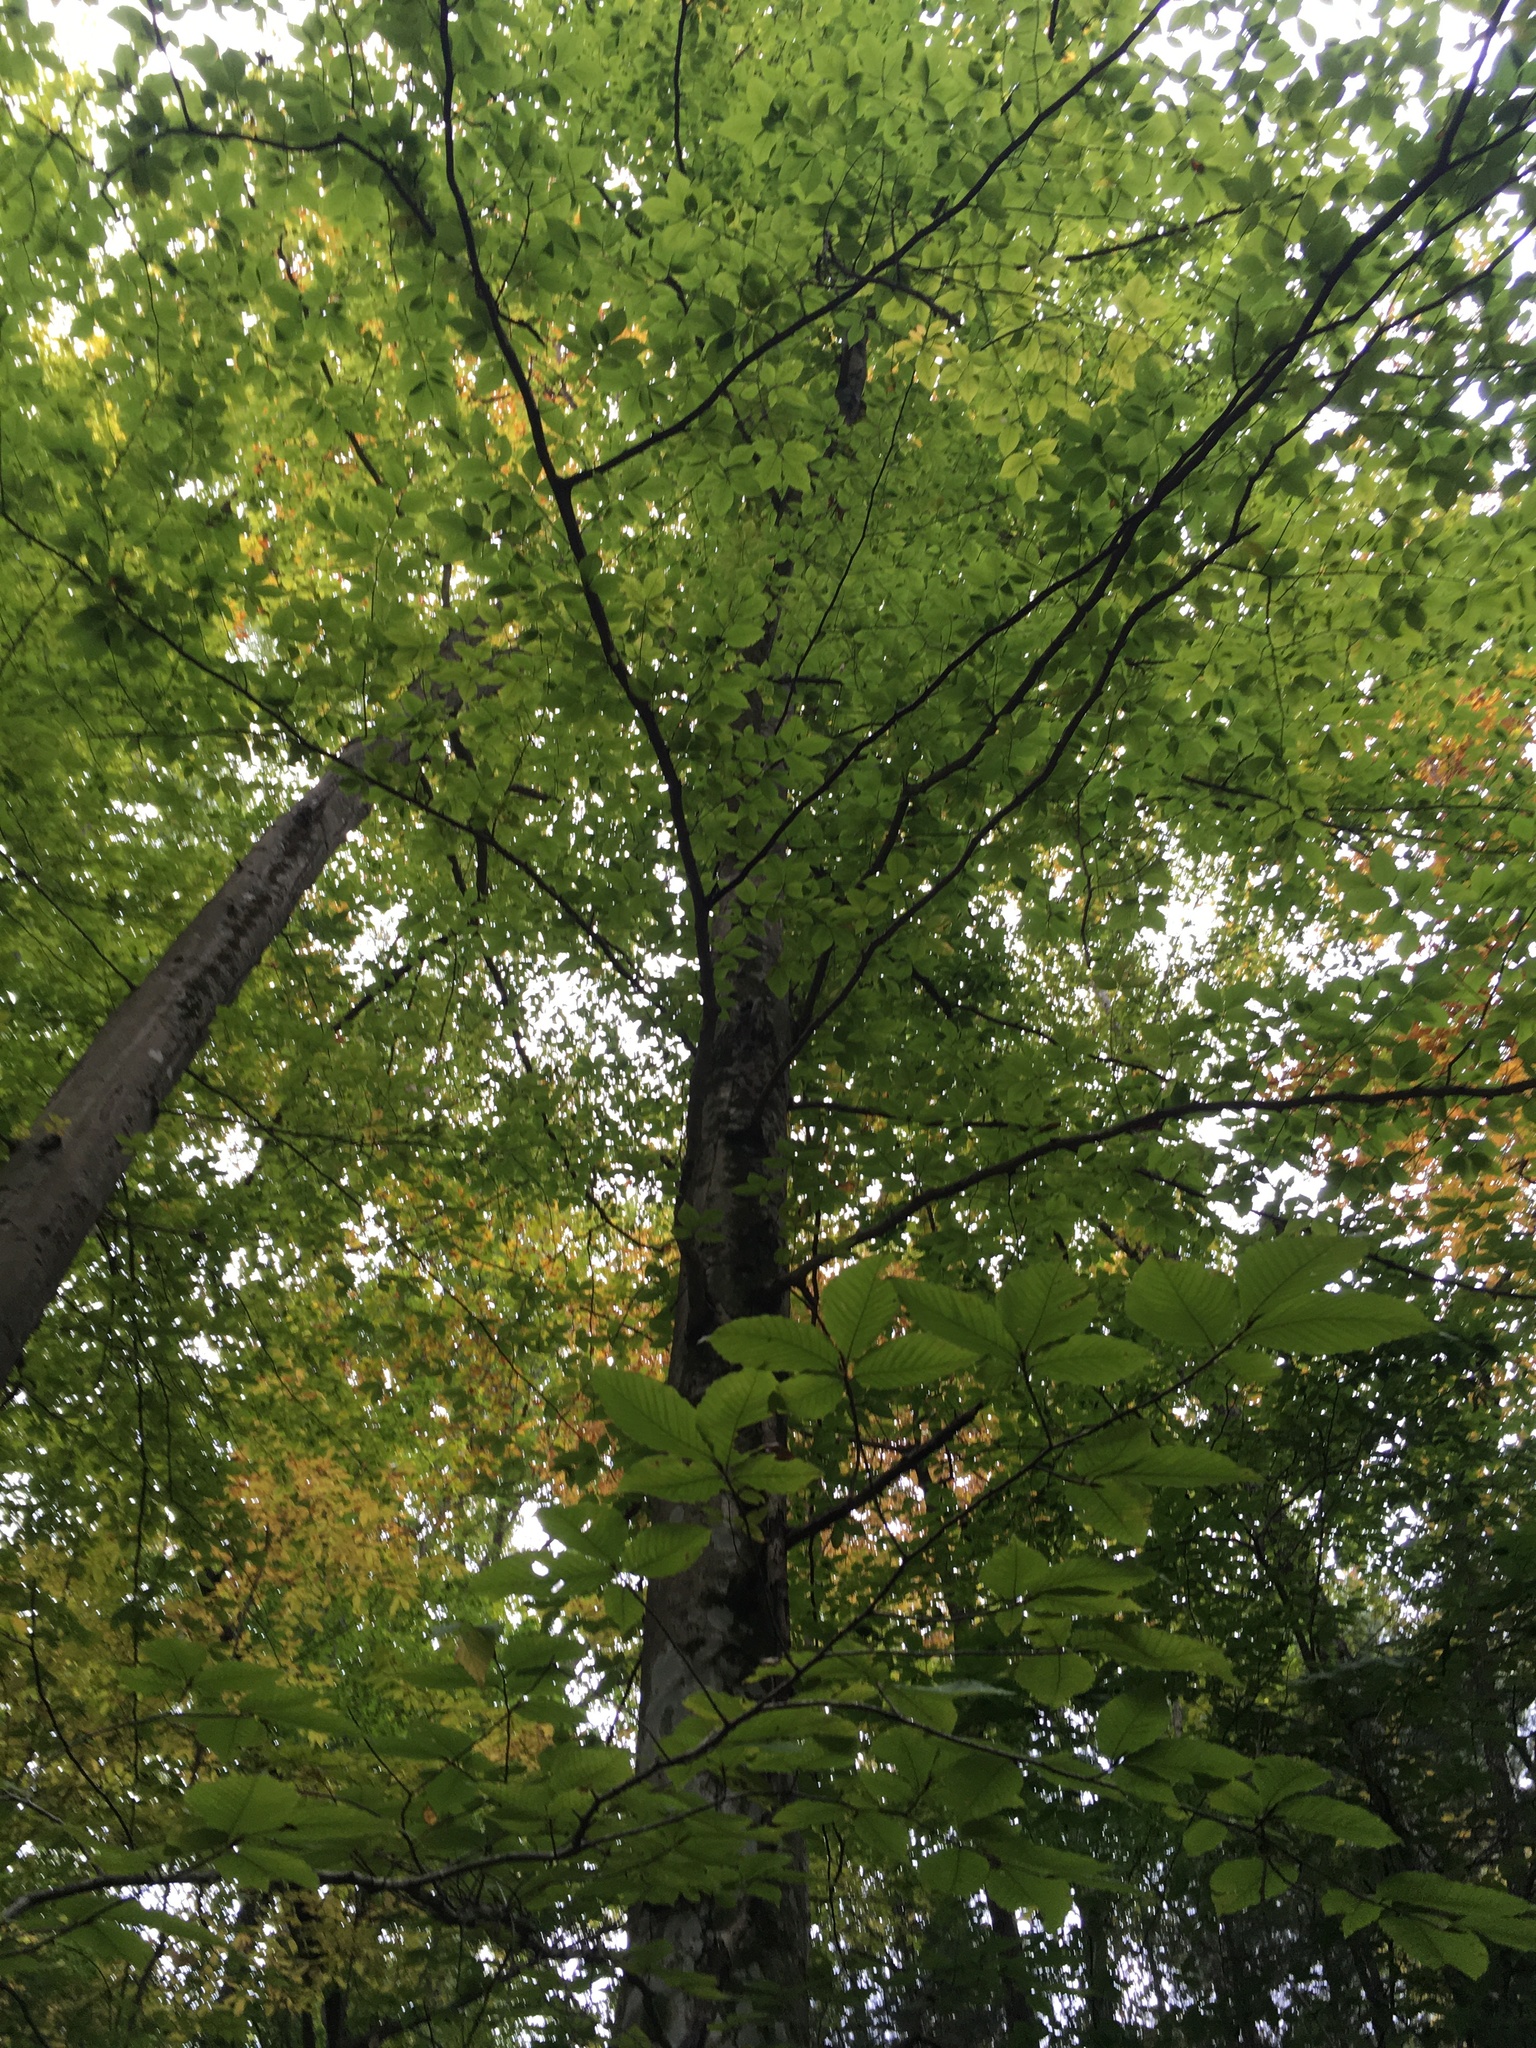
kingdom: Plantae
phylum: Tracheophyta
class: Magnoliopsida
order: Fagales
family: Fagaceae
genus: Fagus
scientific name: Fagus grandifolia
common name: American beech
